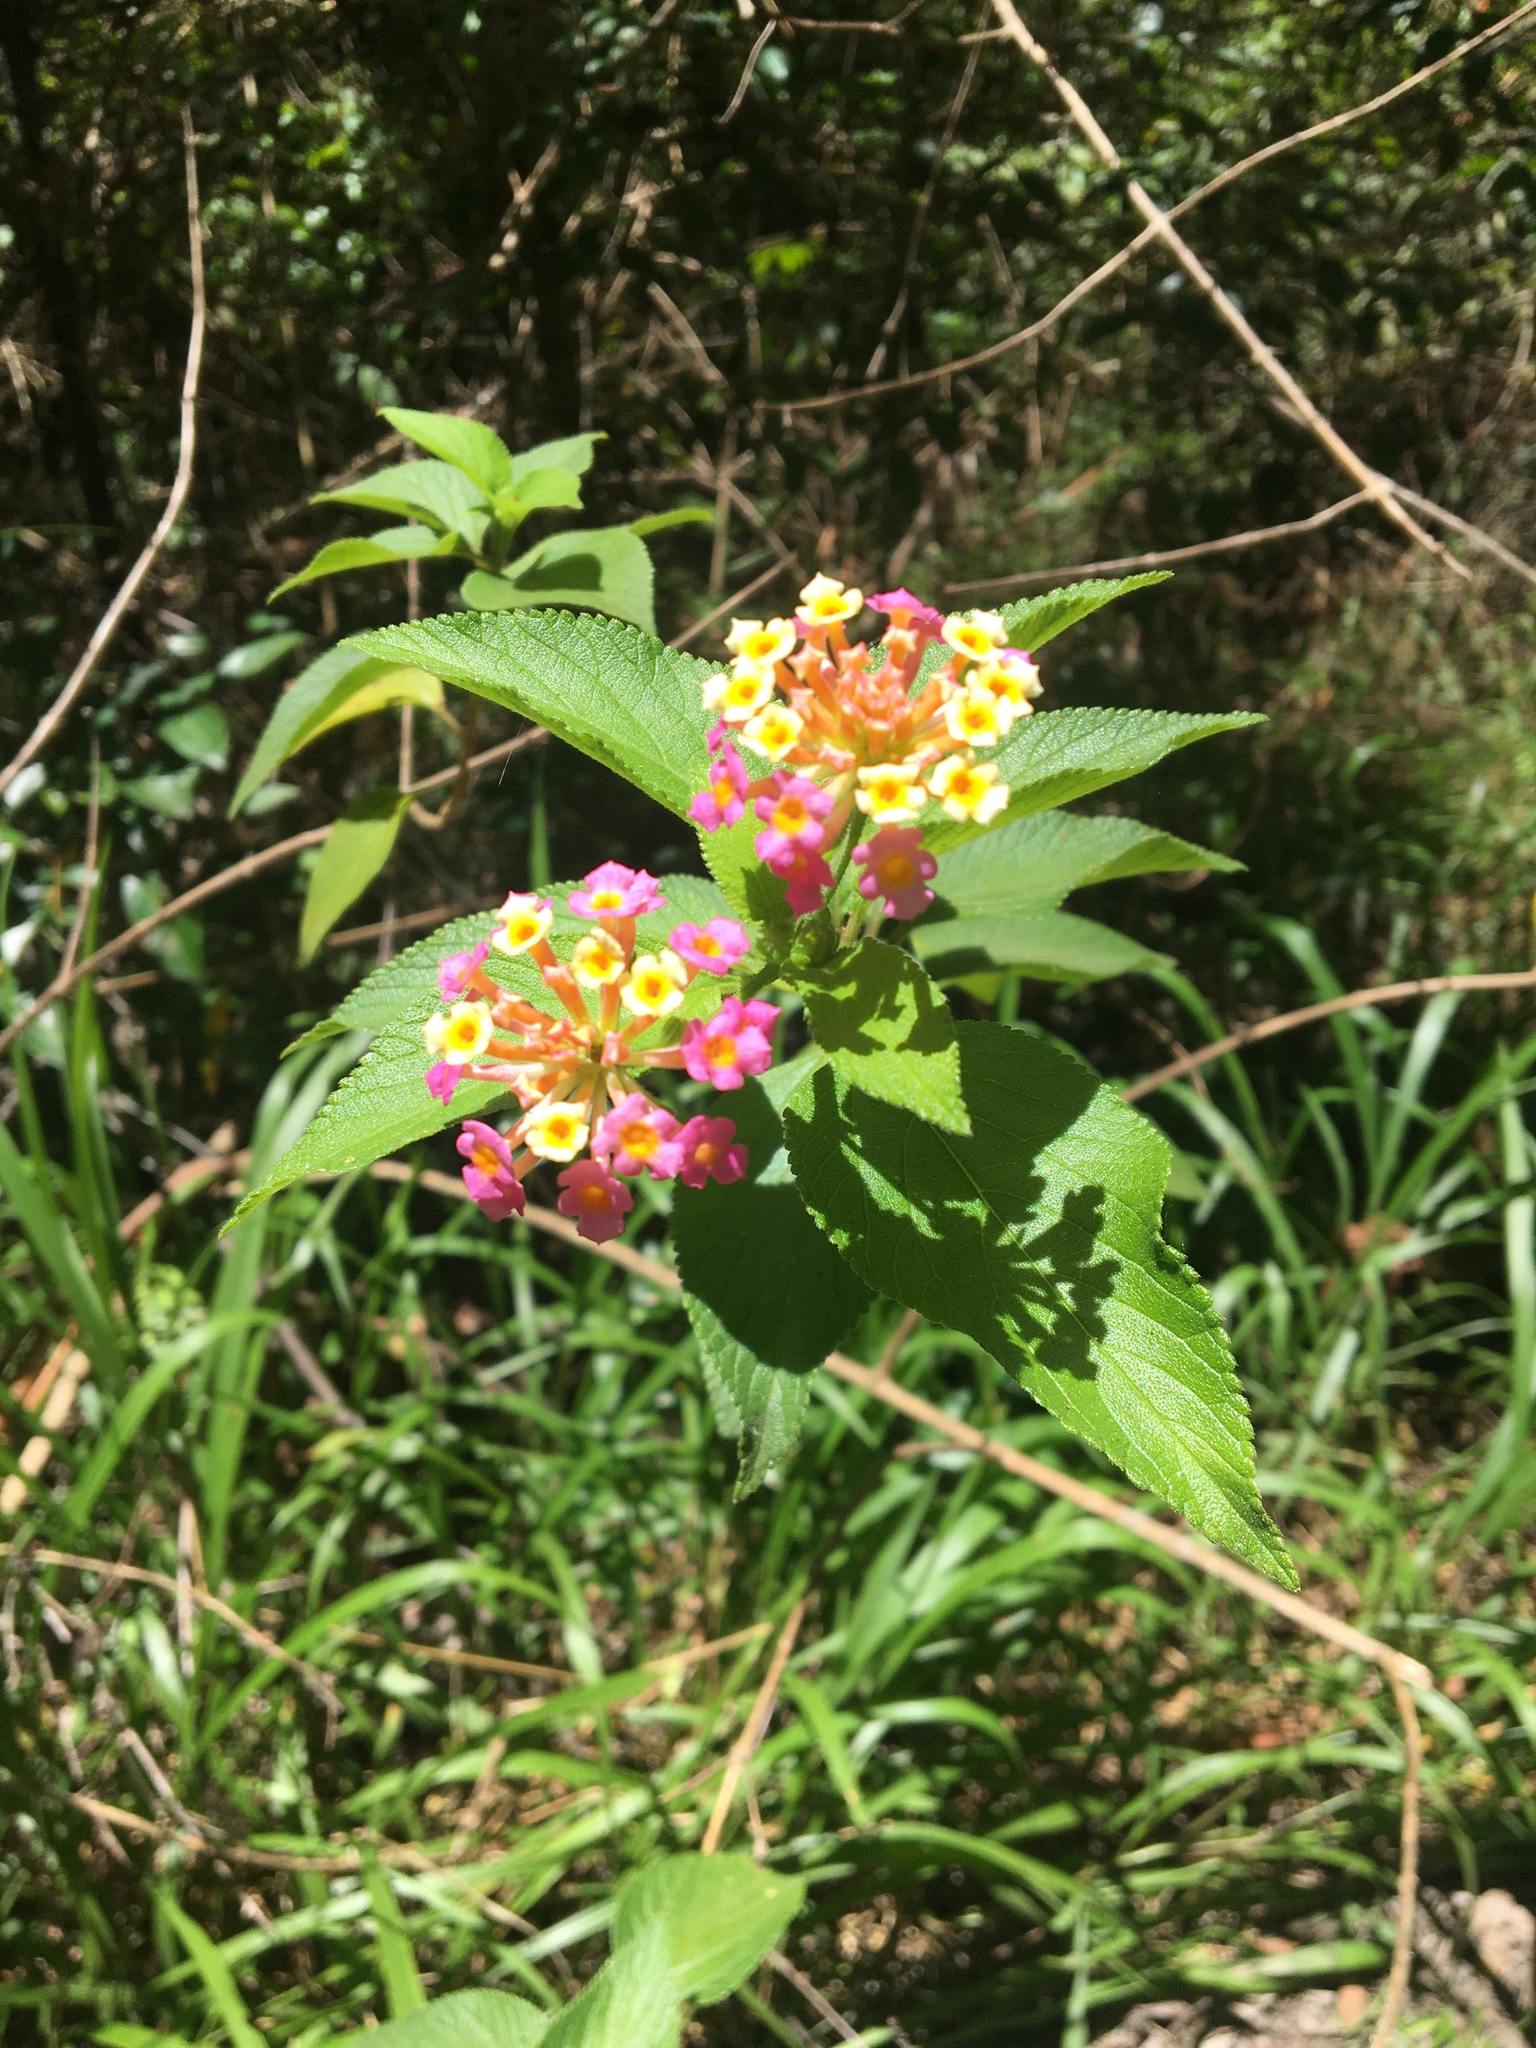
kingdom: Plantae
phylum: Tracheophyta
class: Magnoliopsida
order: Lamiales
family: Verbenaceae
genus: Lantana
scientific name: Lantana camara
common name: Lantana
